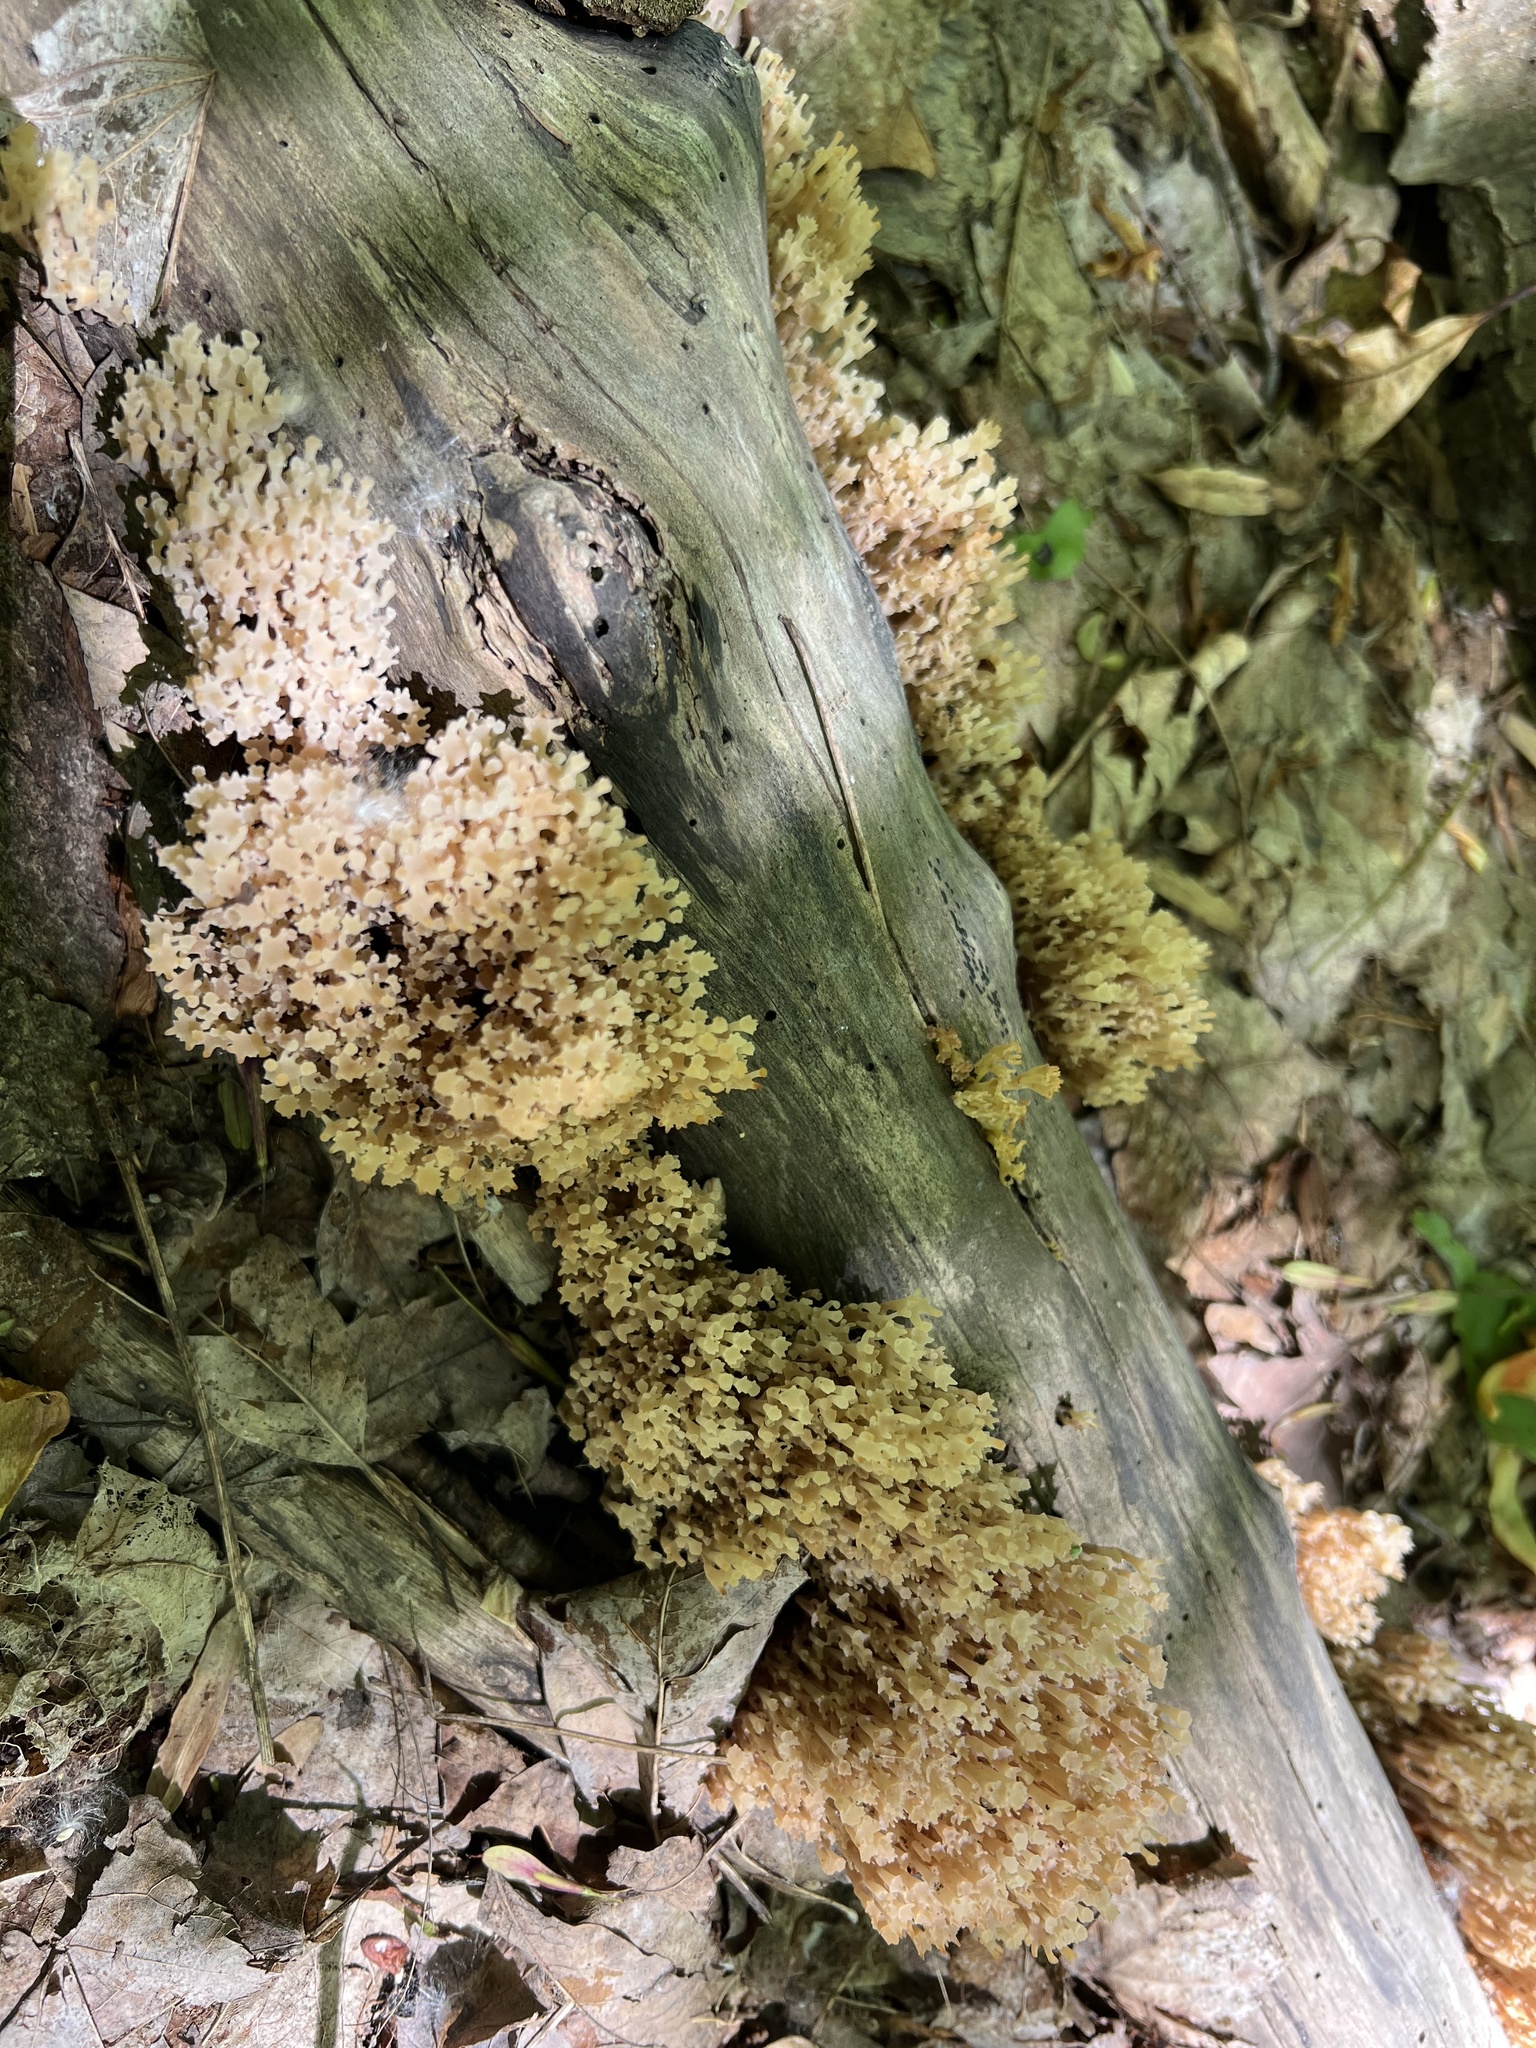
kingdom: Fungi
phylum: Basidiomycota
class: Agaricomycetes
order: Russulales
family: Auriscalpiaceae
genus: Artomyces
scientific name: Artomyces pyxidatus
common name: Crown-tipped coral fungus
